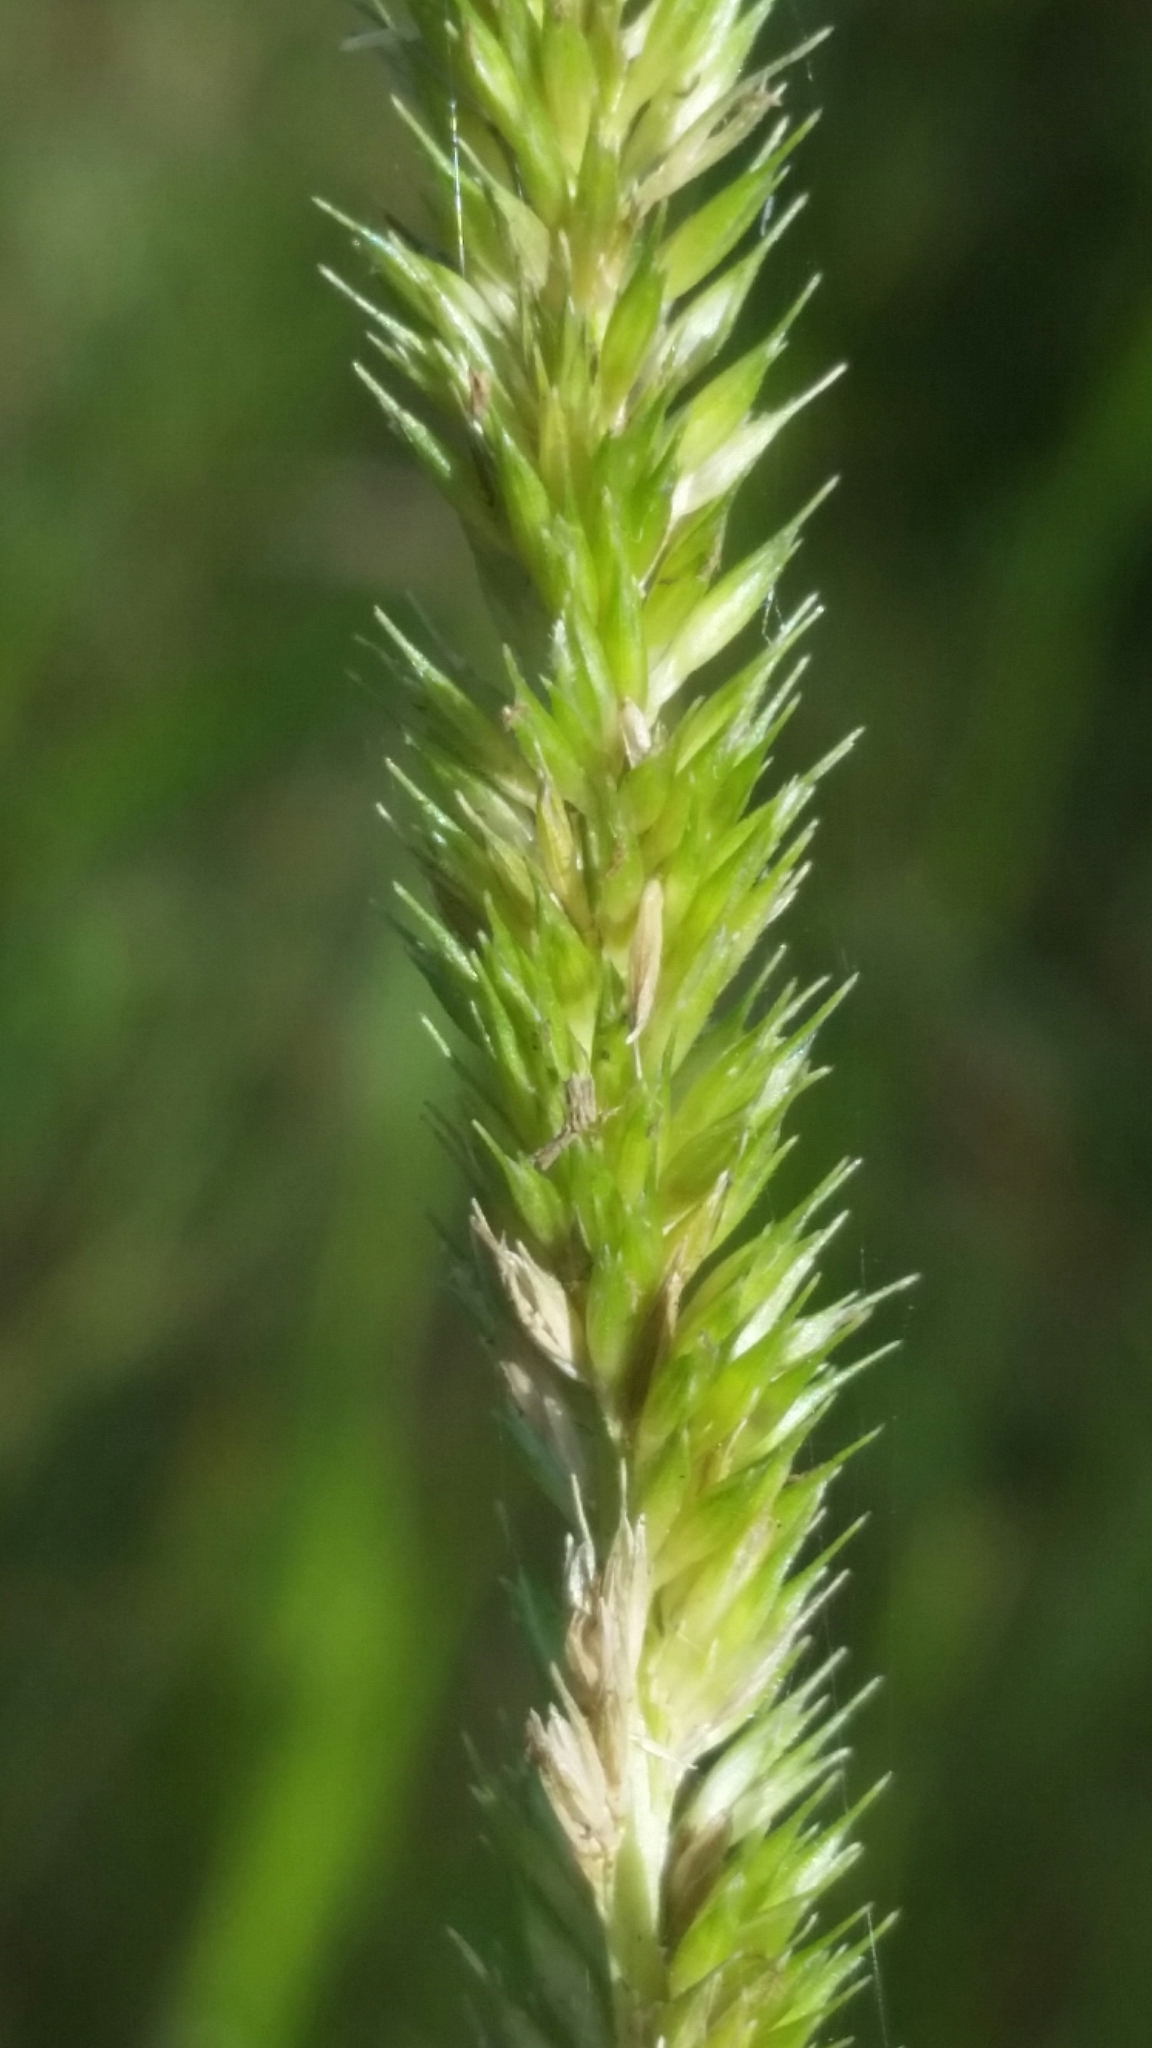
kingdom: Plantae
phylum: Tracheophyta
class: Liliopsida
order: Poales
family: Poaceae
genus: Hymenachne
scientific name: Hymenachne amplexicaulis
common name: Olive hymenachne
